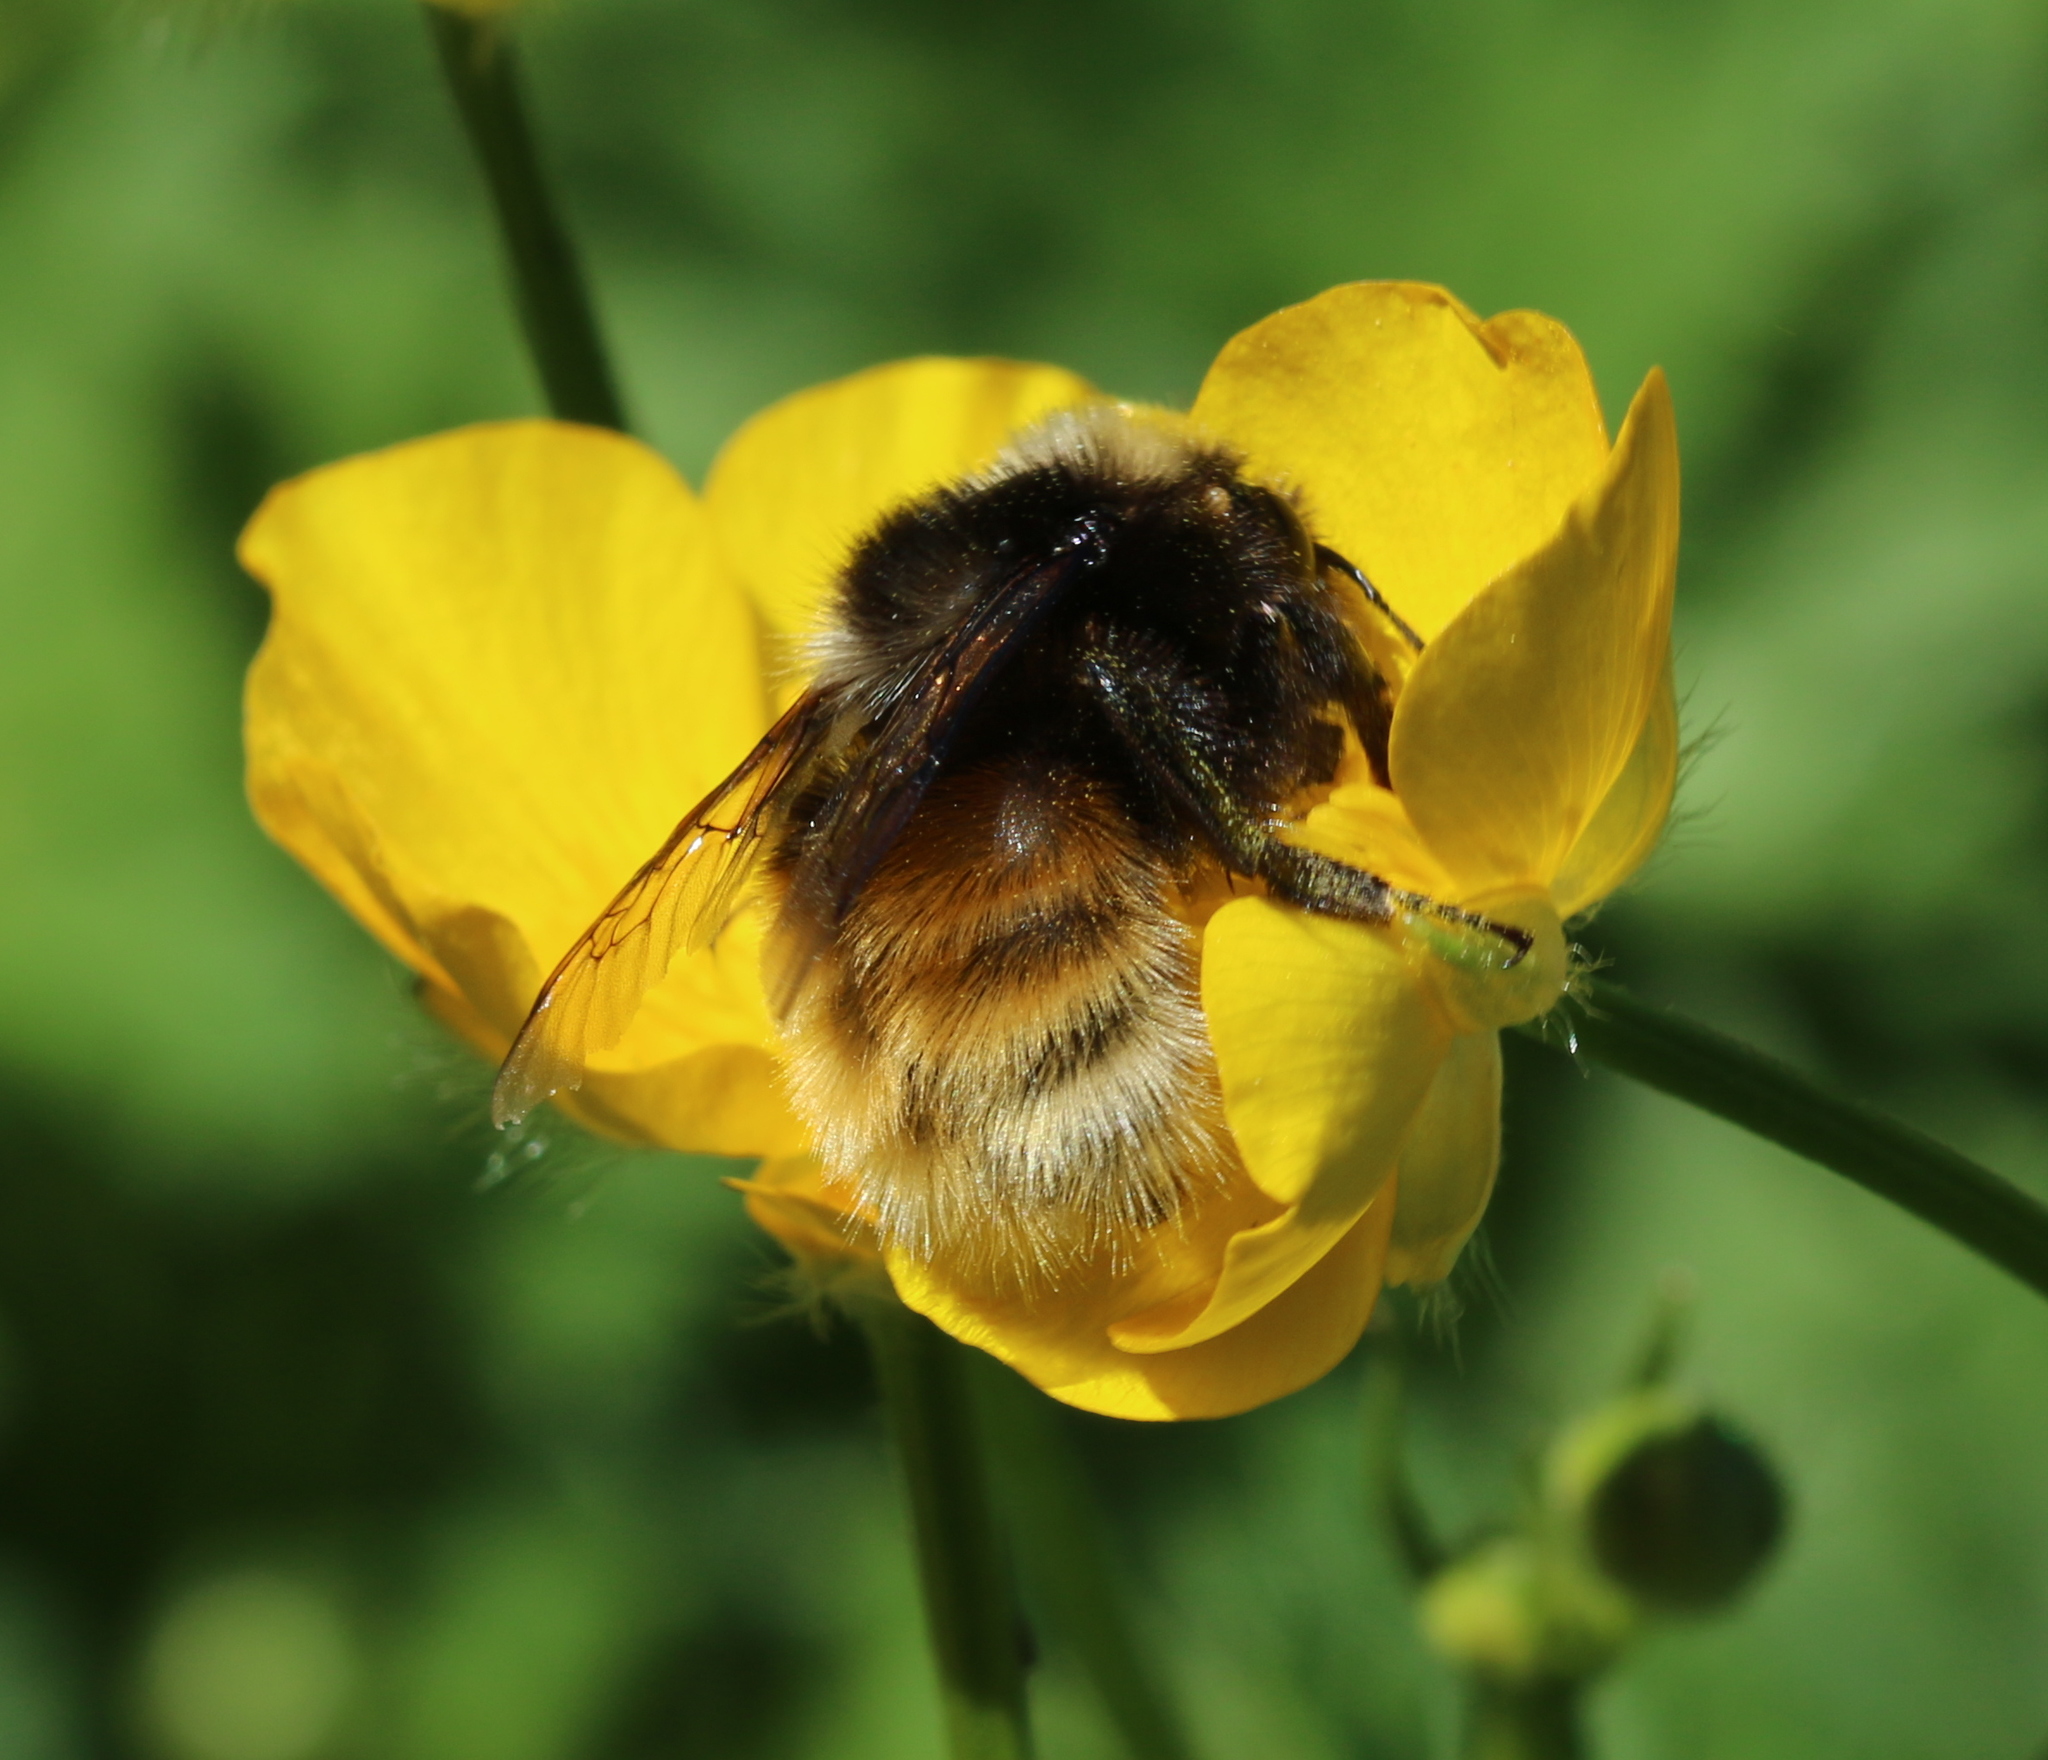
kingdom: Animalia
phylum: Arthropoda
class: Insecta
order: Hymenoptera
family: Apidae
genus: Bombus
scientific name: Bombus monticola
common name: Bilberry humble-bee
